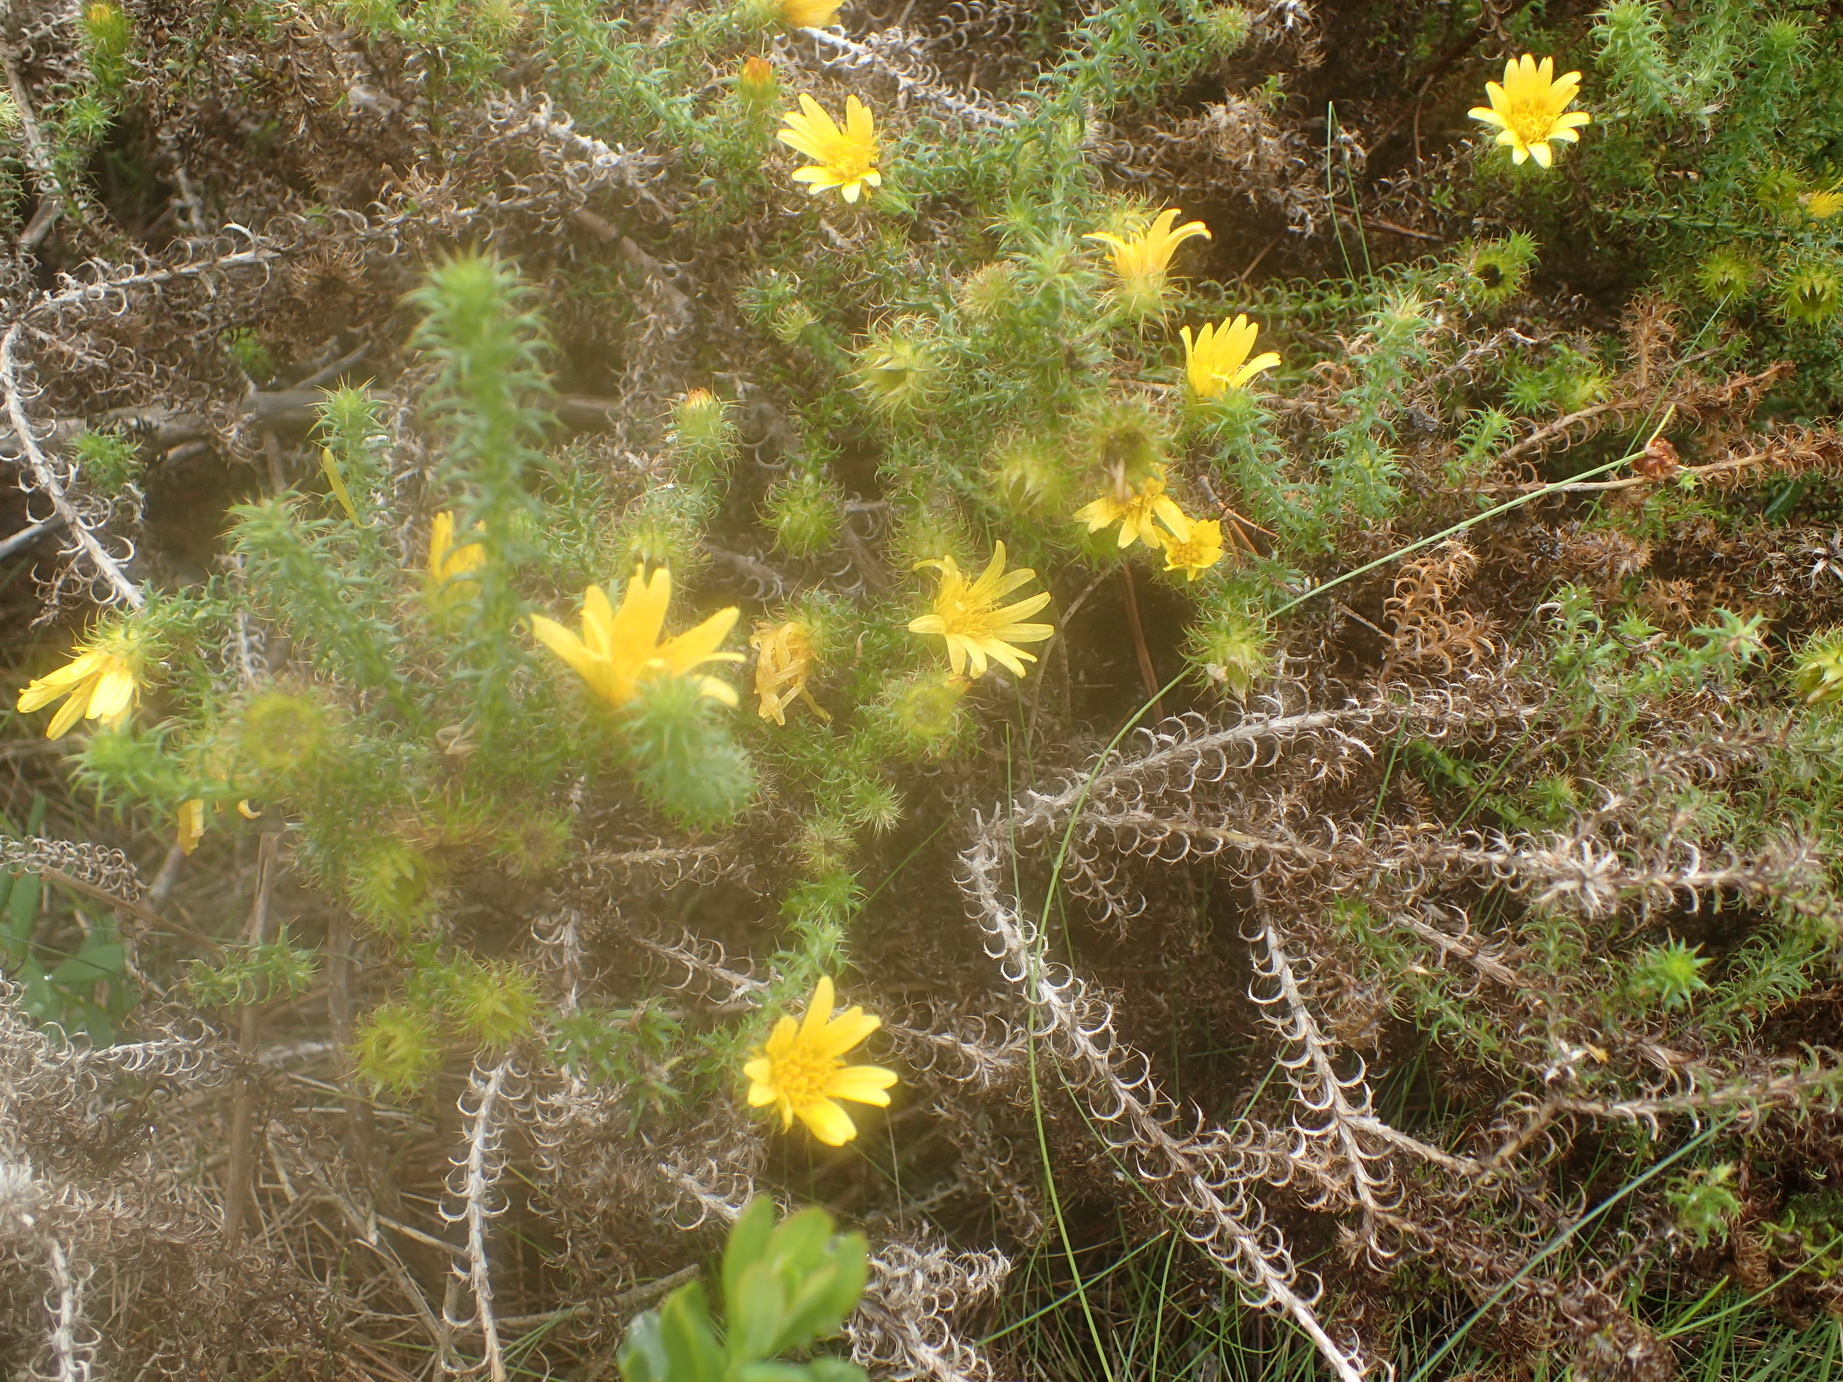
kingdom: Plantae
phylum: Tracheophyta
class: Magnoliopsida
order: Asterales
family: Asteraceae
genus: Cullumia
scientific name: Cullumia decurrens
